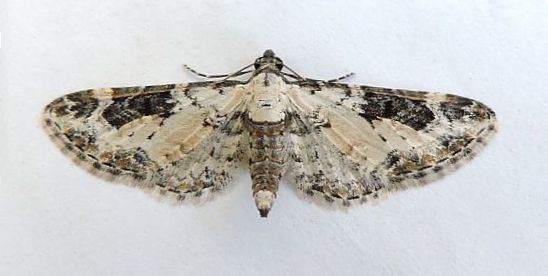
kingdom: Animalia
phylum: Arthropoda
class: Insecta
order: Lepidoptera
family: Geometridae
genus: Prorella
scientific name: Prorella gypsata
